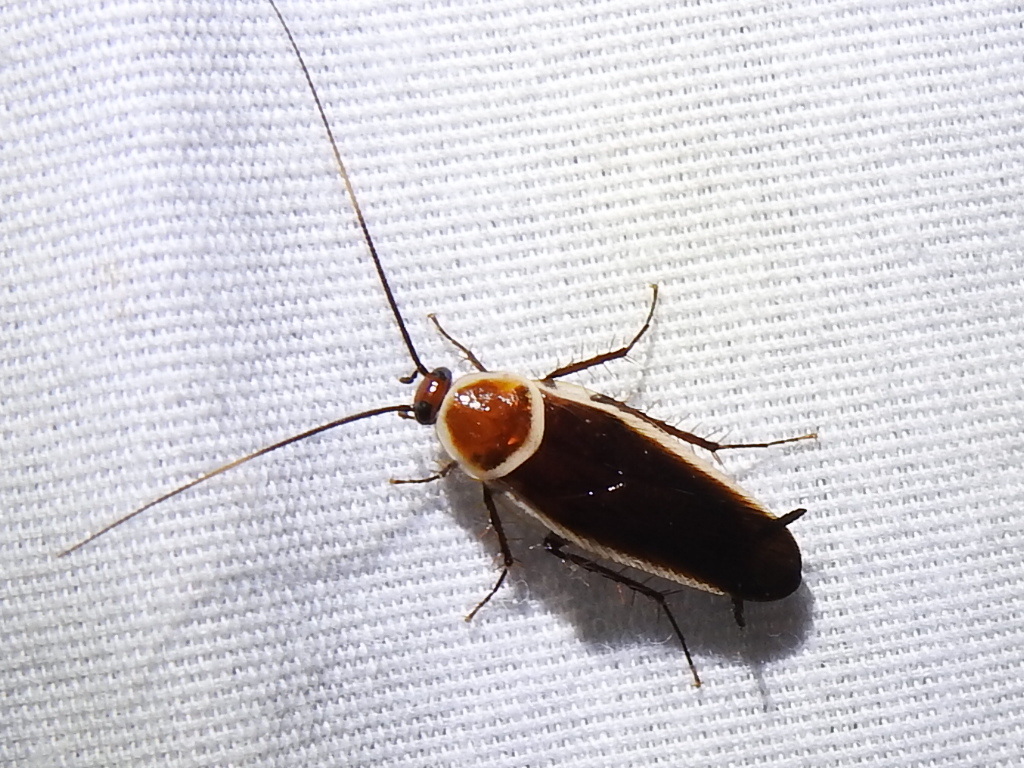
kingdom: Animalia
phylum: Arthropoda
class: Insecta
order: Blattodea
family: Ectobiidae
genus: Pseudomops
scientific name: Pseudomops septentrionalis
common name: Pale-bordered field cockroach
